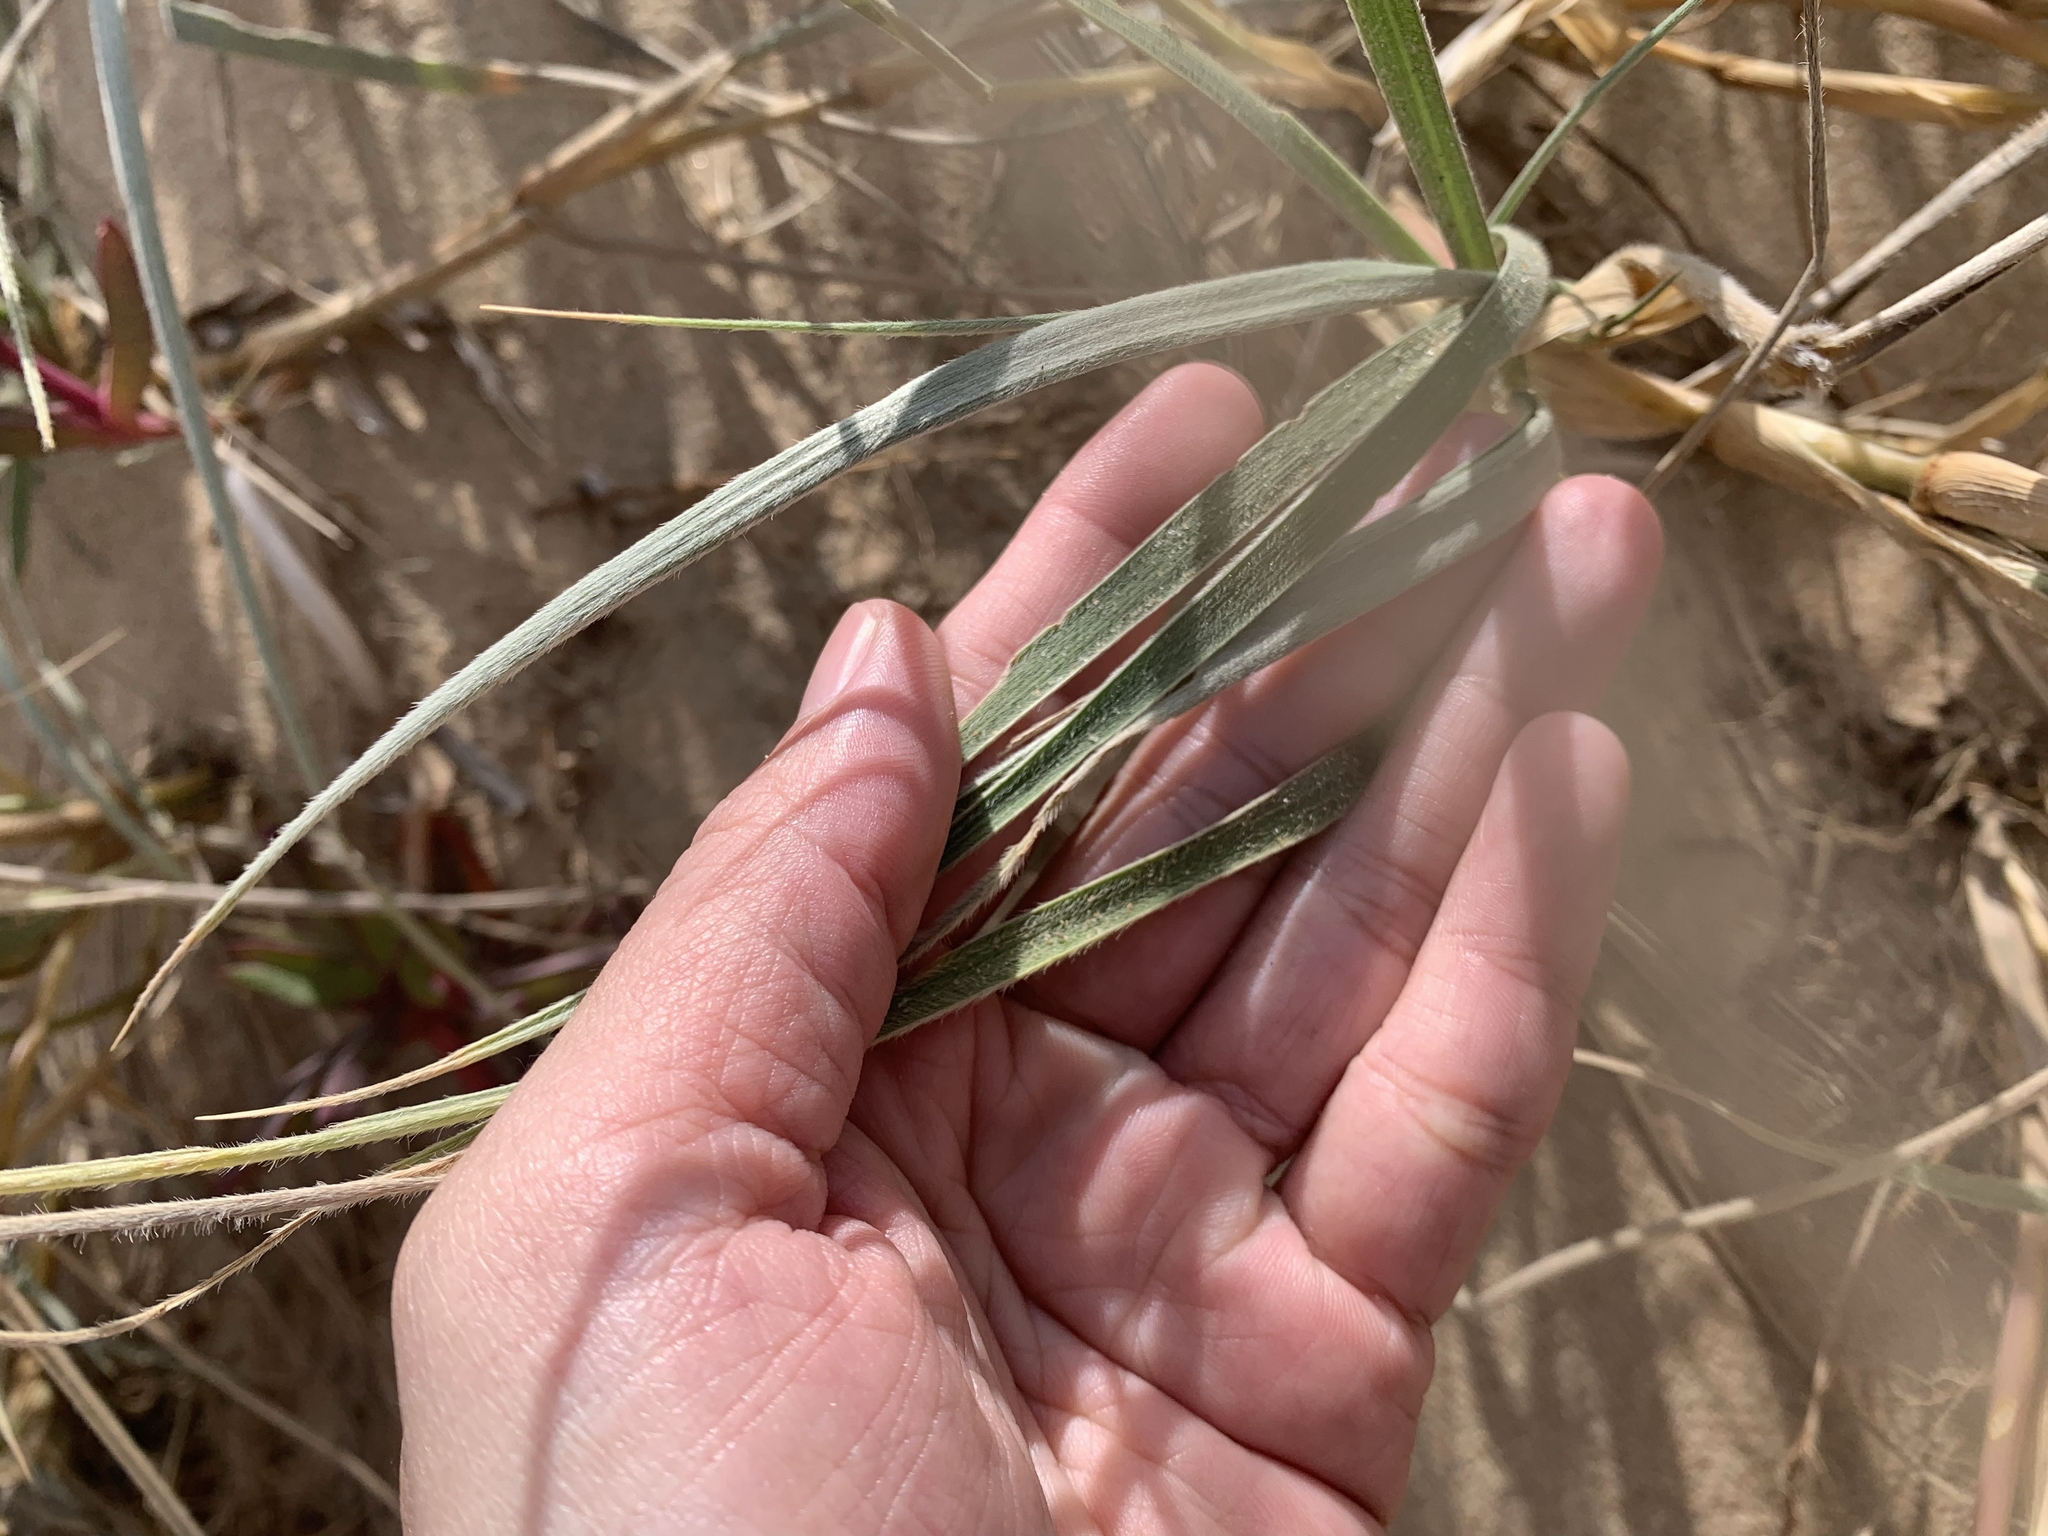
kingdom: Plantae
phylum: Tracheophyta
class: Liliopsida
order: Poales
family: Poaceae
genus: Spinifex
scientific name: Spinifex sericeus
